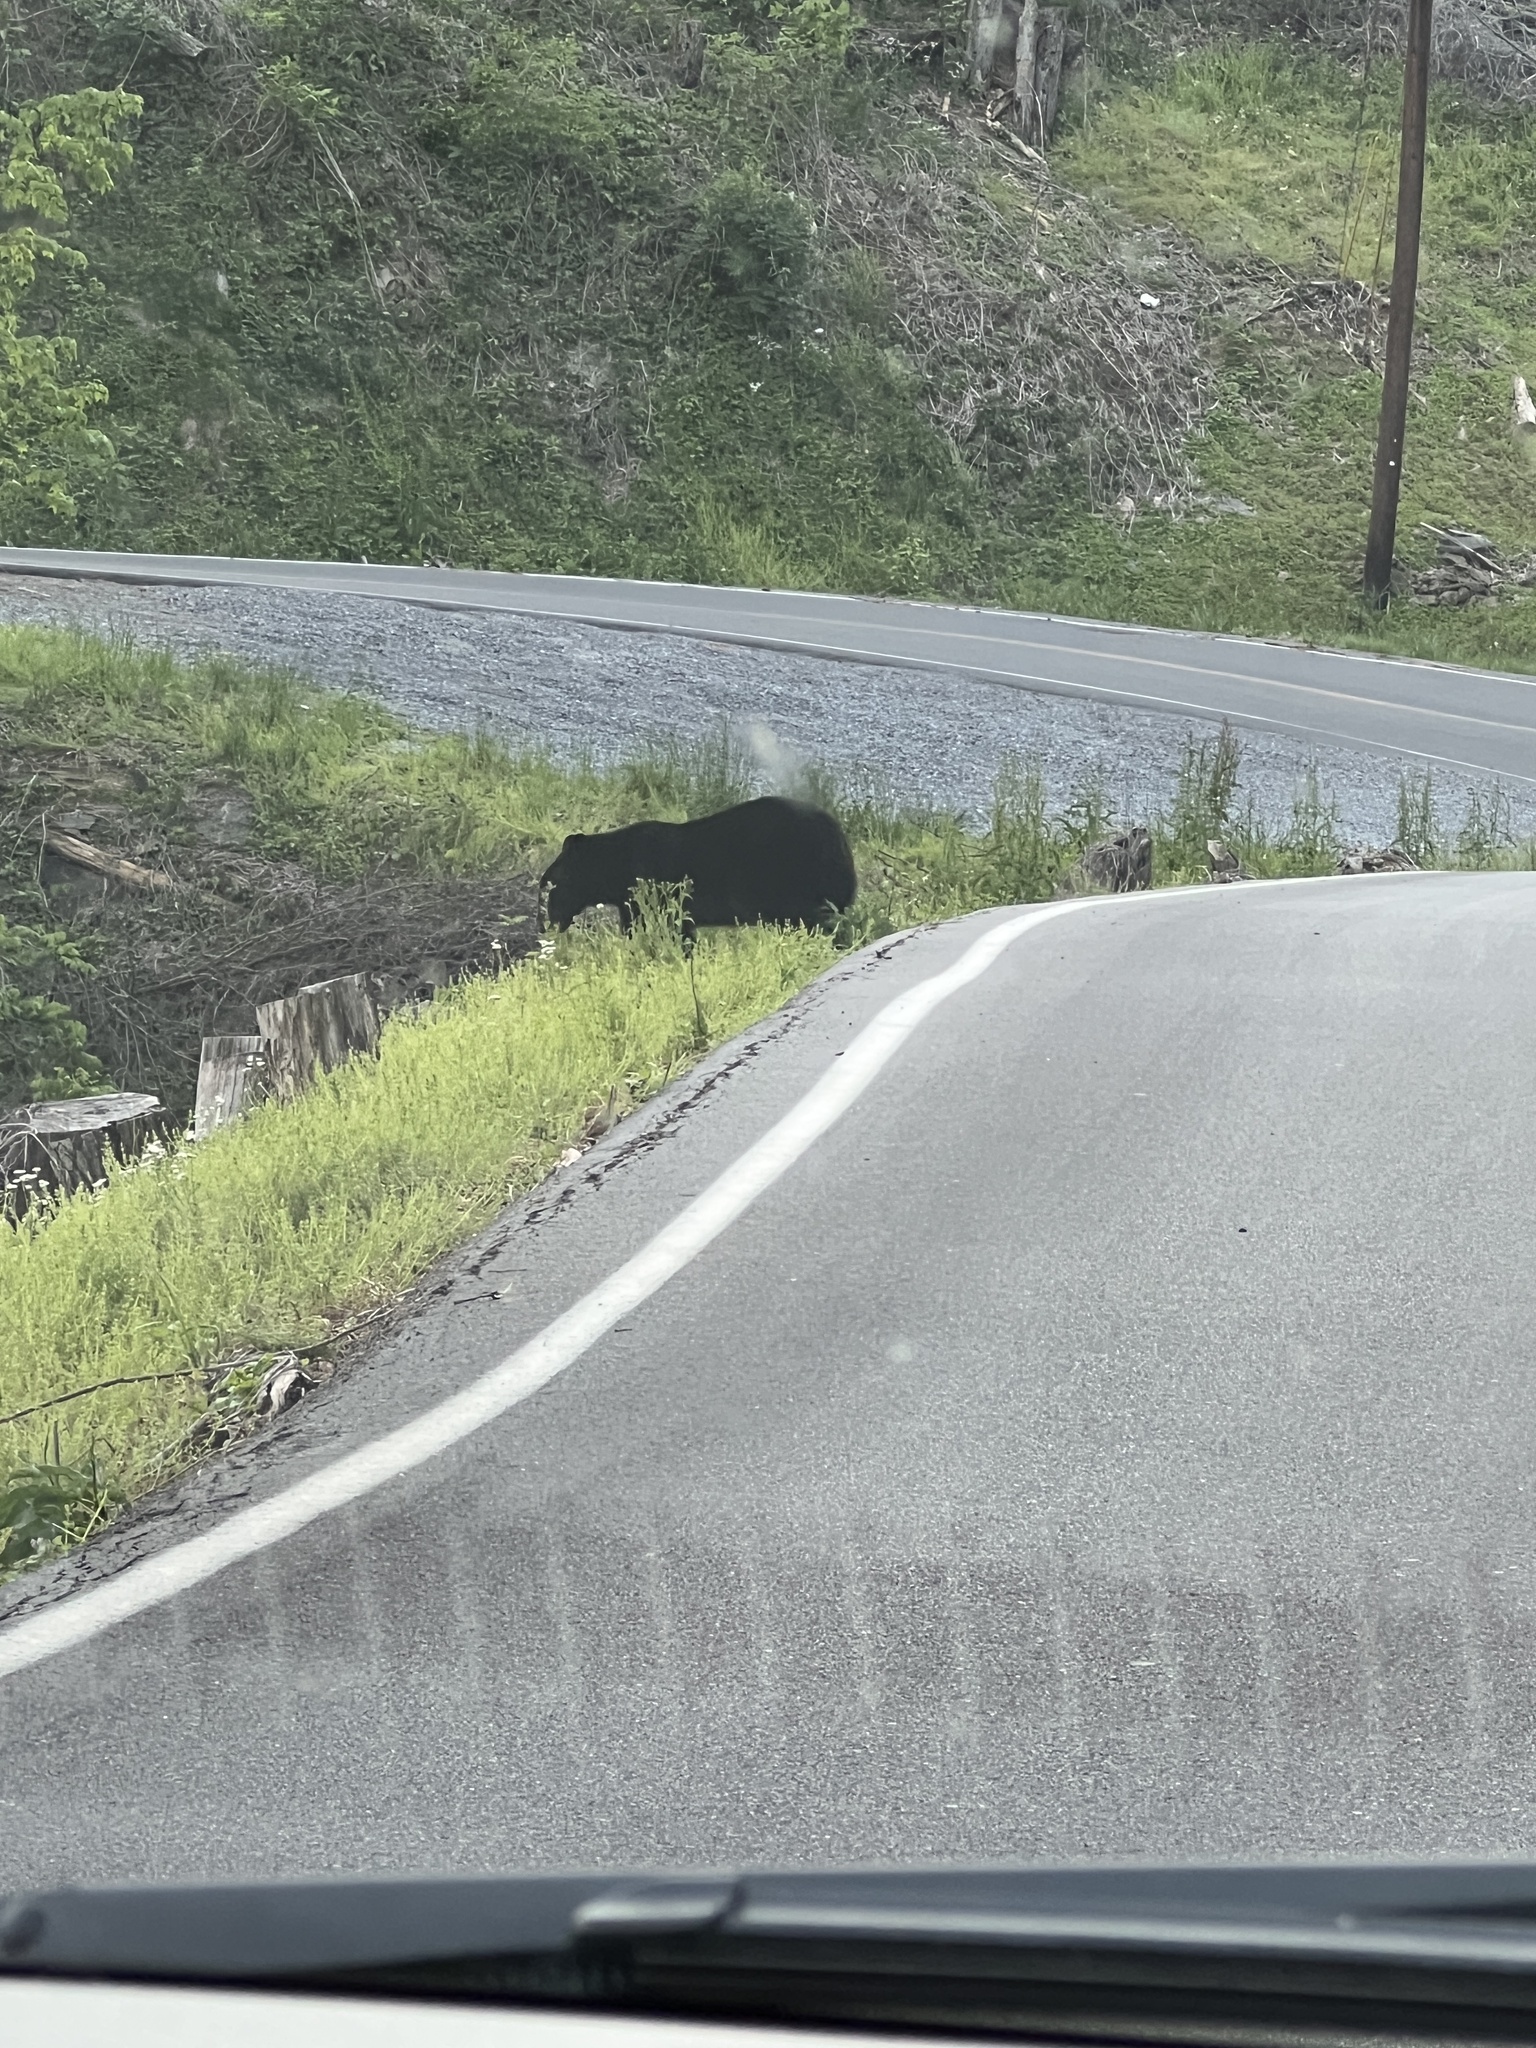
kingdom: Animalia
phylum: Chordata
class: Mammalia
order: Carnivora
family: Ursidae
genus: Ursus
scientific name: Ursus americanus
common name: American black bear
